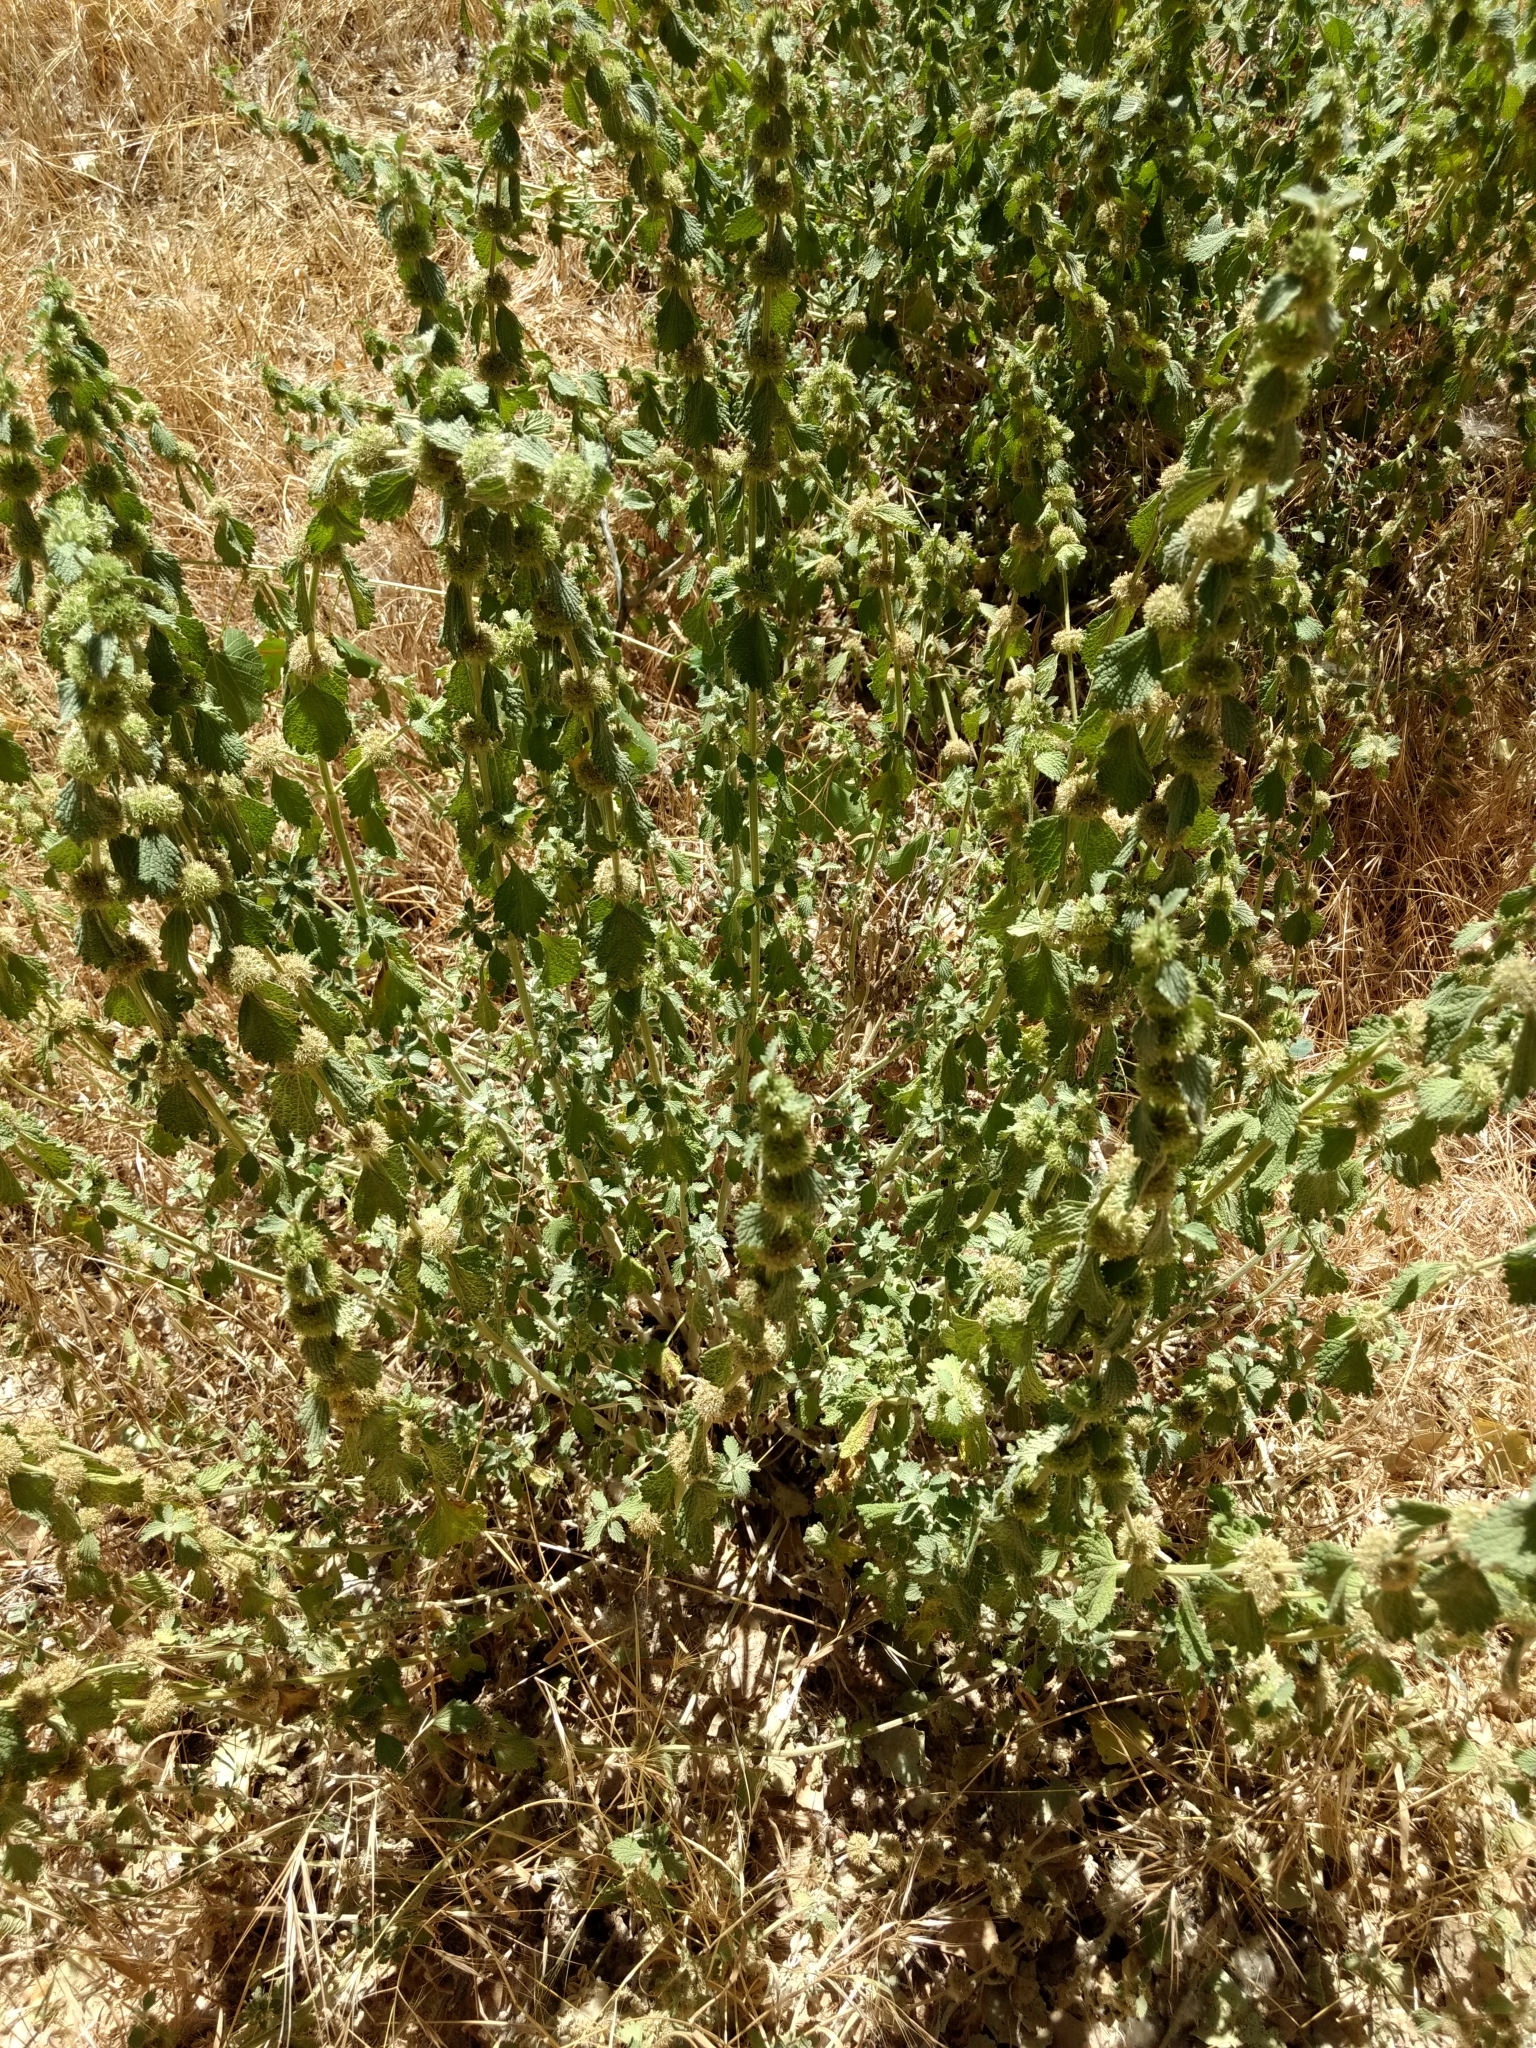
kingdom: Plantae
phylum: Tracheophyta
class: Magnoliopsida
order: Lamiales
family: Lamiaceae
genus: Marrubium
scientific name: Marrubium vulgare
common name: Horehound
